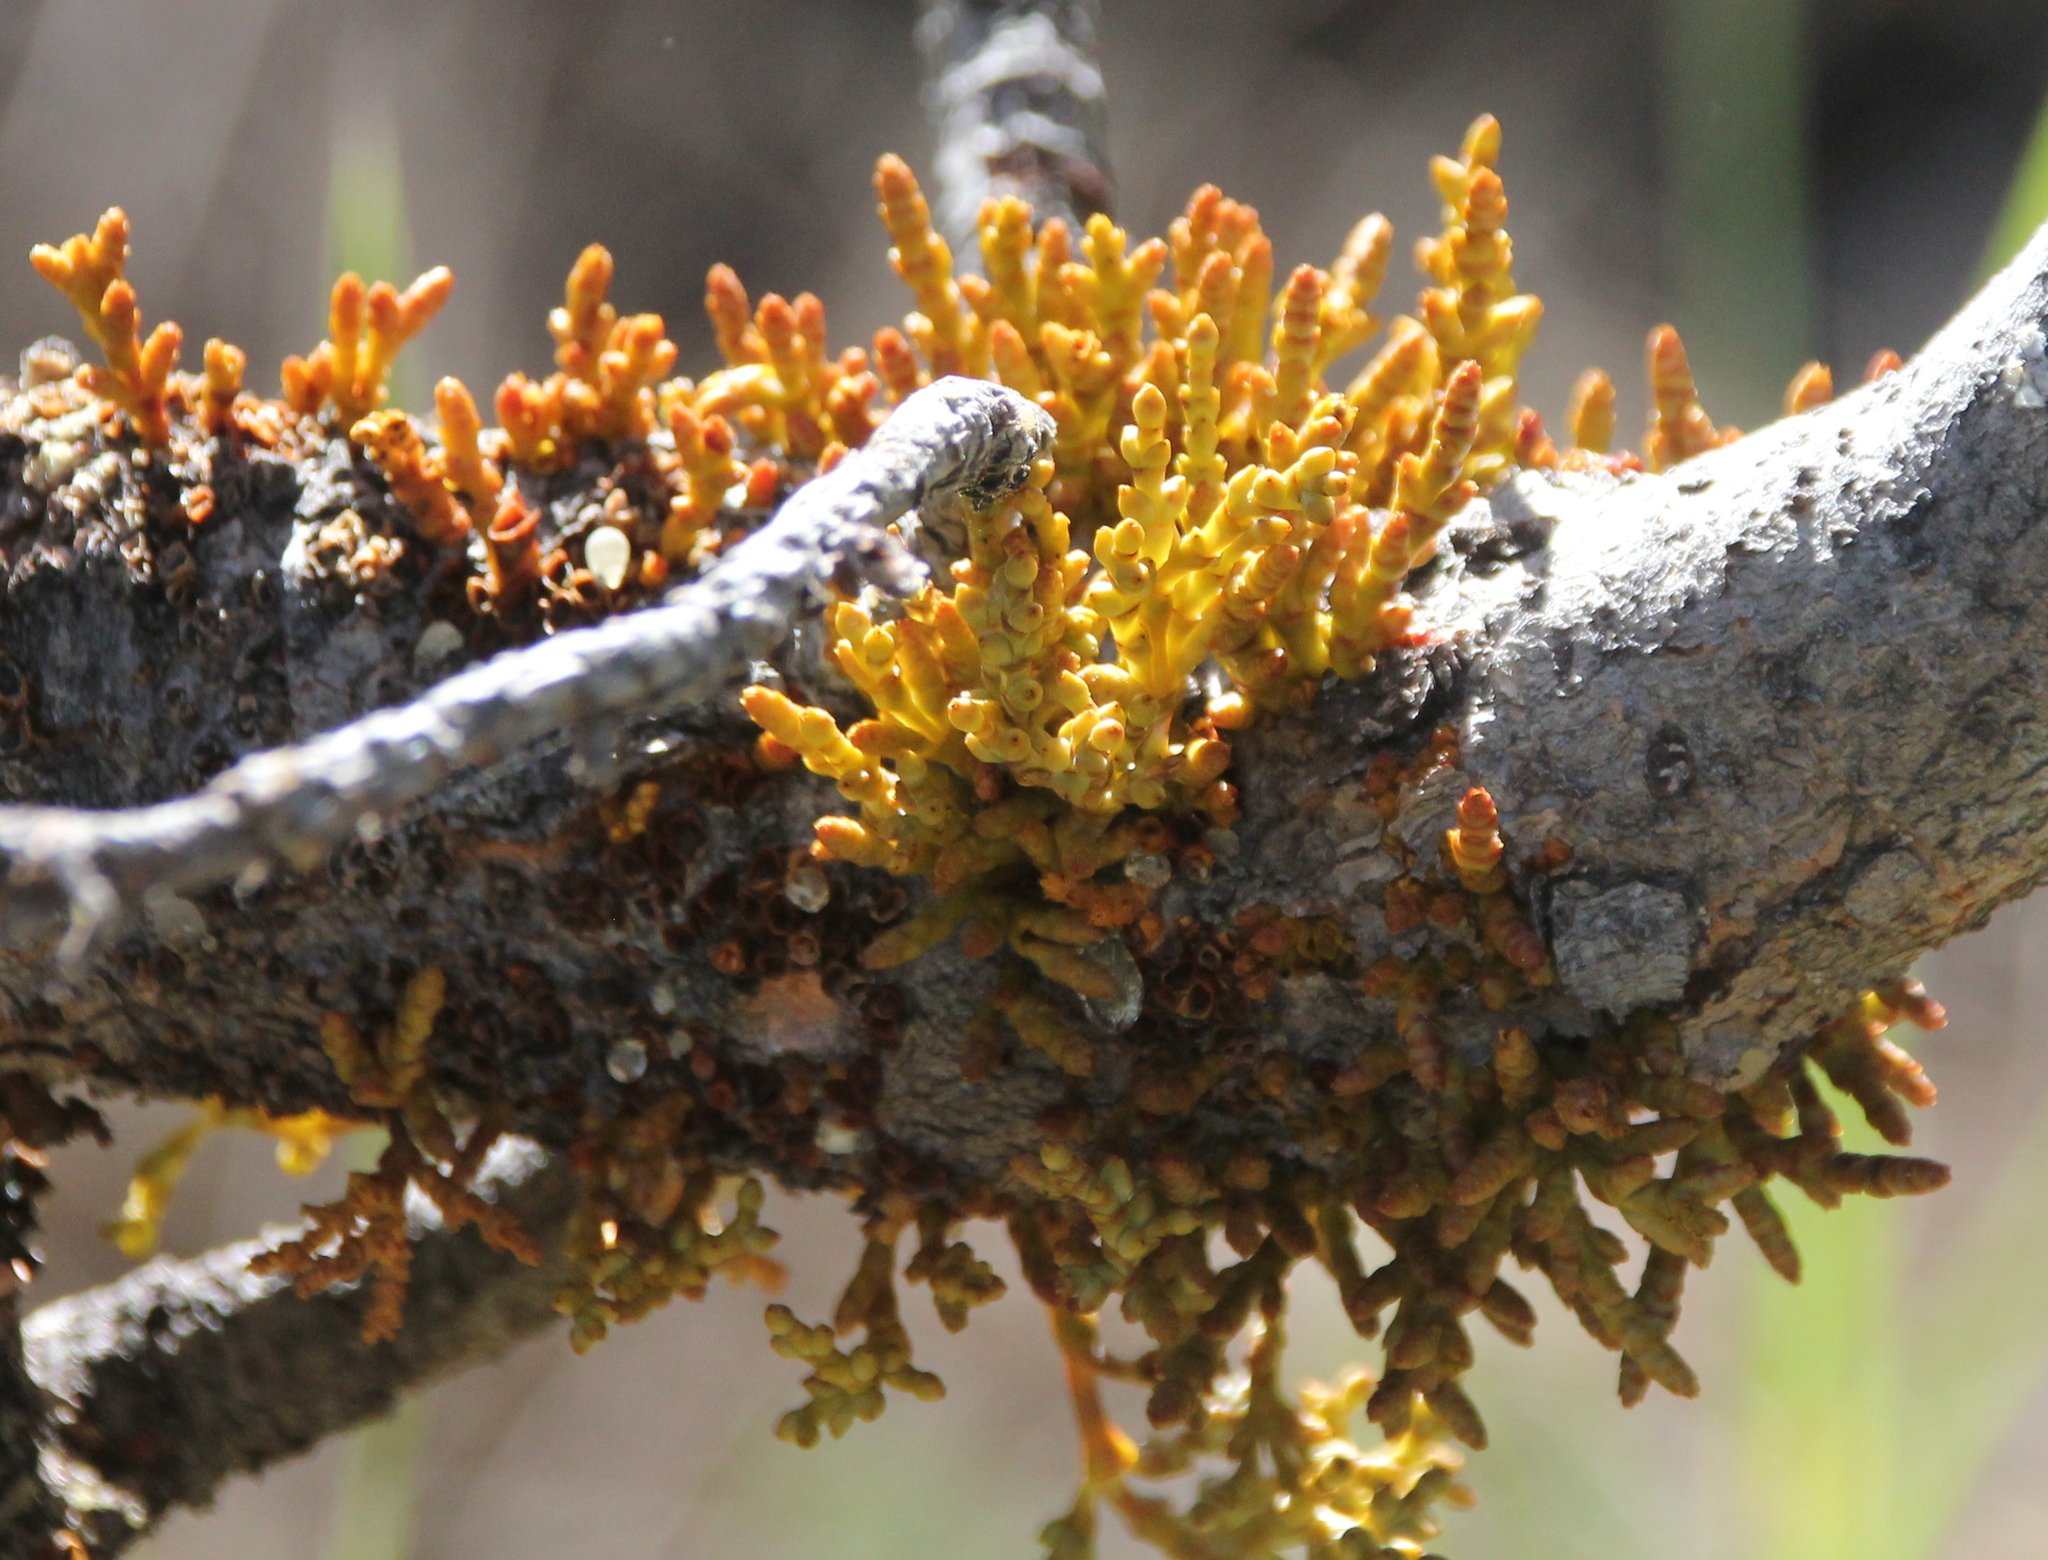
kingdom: Plantae
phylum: Tracheophyta
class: Magnoliopsida
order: Santalales
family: Viscaceae
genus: Arceuthobium
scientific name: Arceuthobium campylopodum
